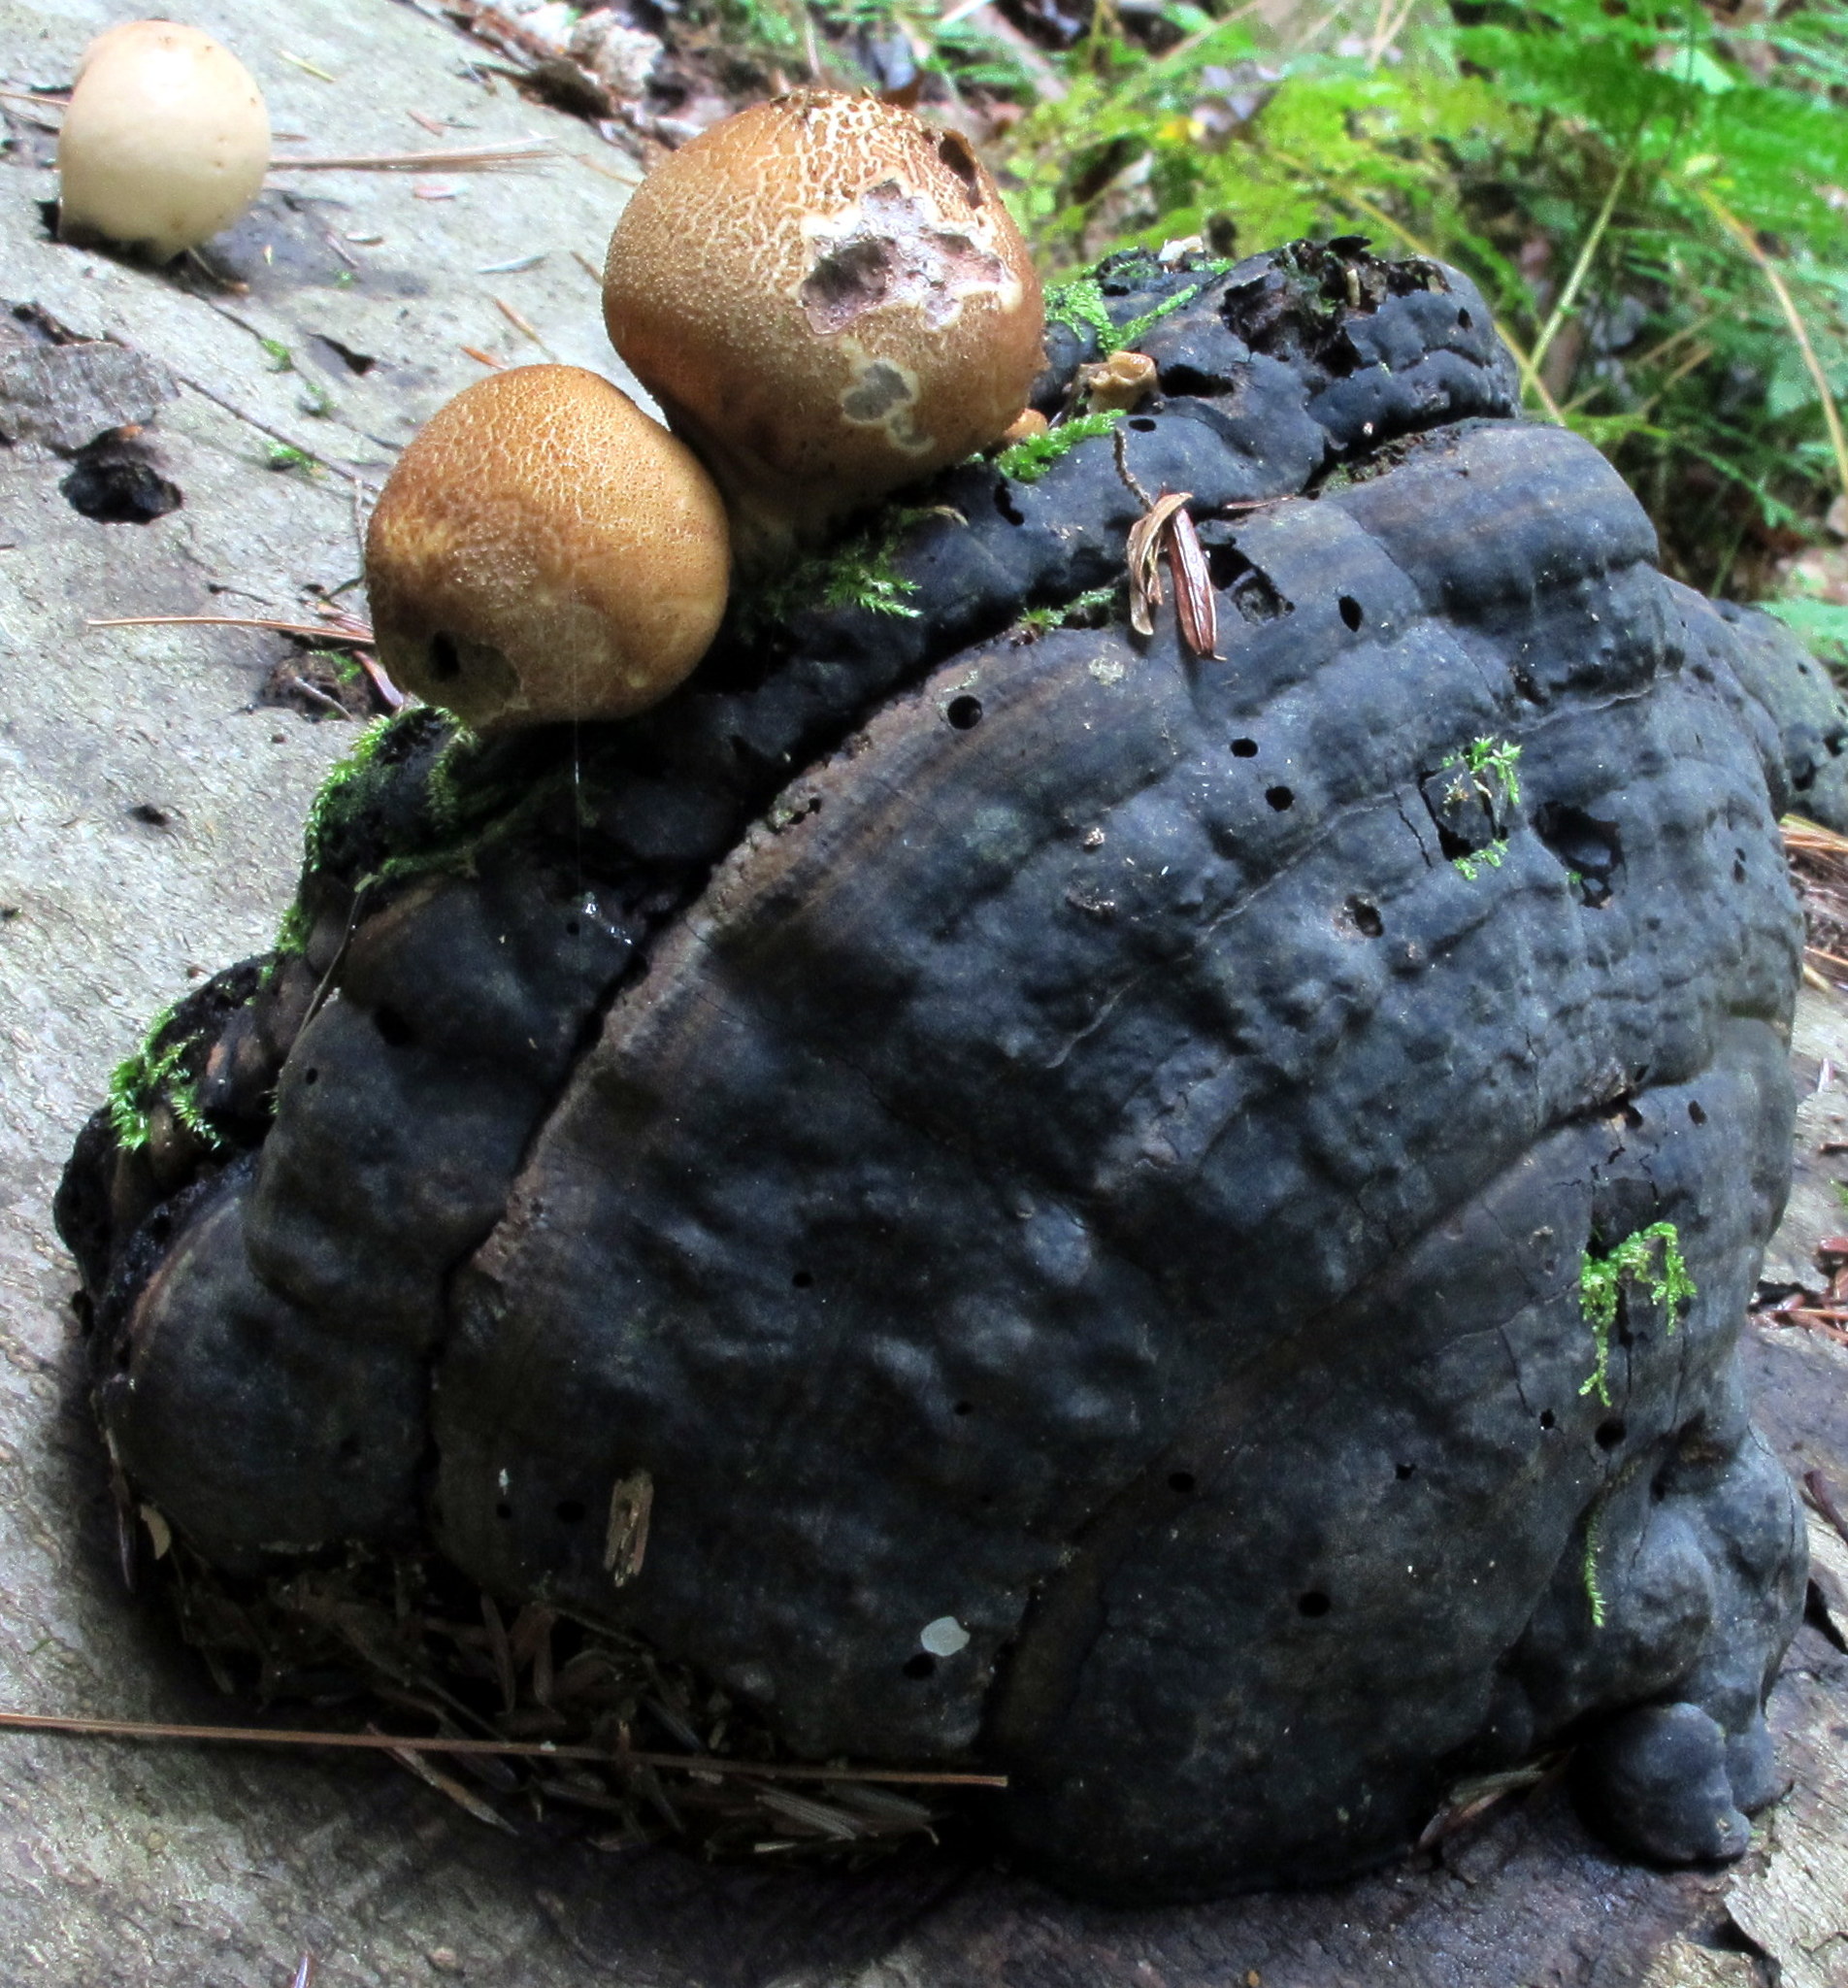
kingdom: Fungi
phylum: Basidiomycota
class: Agaricomycetes
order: Agaricales
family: Lycoperdaceae
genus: Apioperdon
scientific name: Apioperdon pyriforme
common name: Pear-shaped puffball
